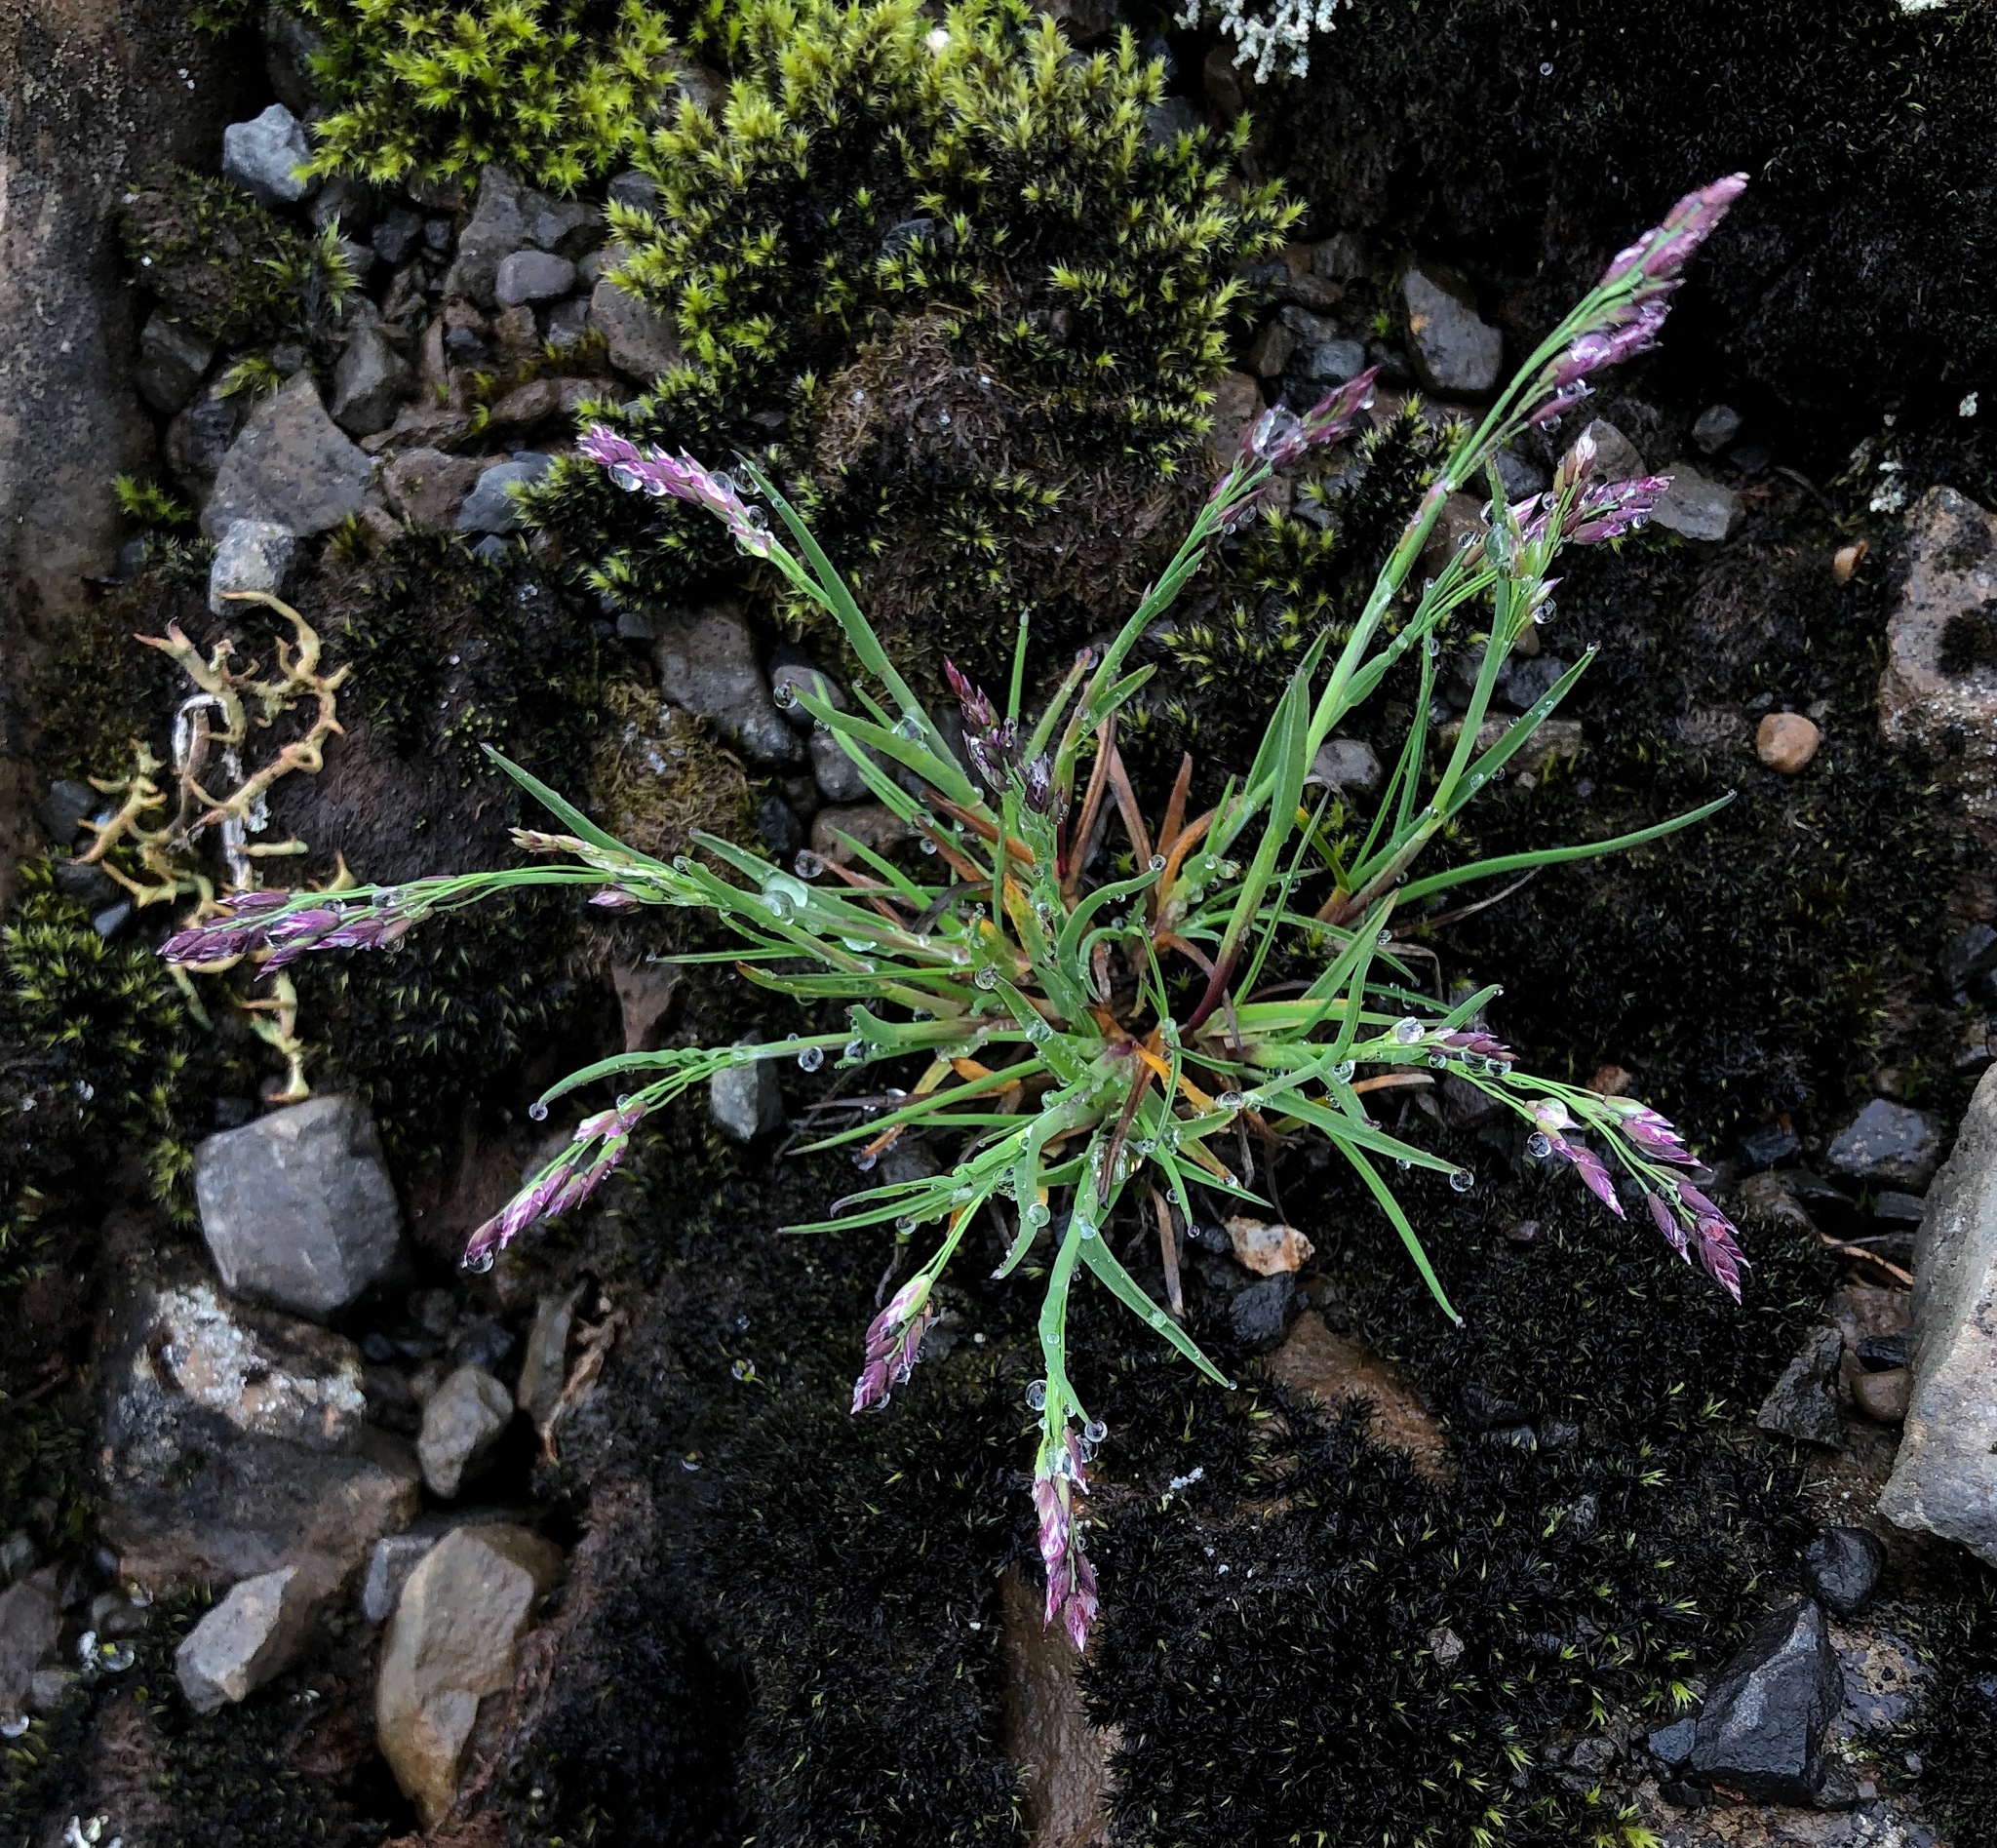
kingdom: Plantae
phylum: Tracheophyta
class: Liliopsida
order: Poales
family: Poaceae
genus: Poa
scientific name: Poa glauca
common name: Glaucous bluegrass
